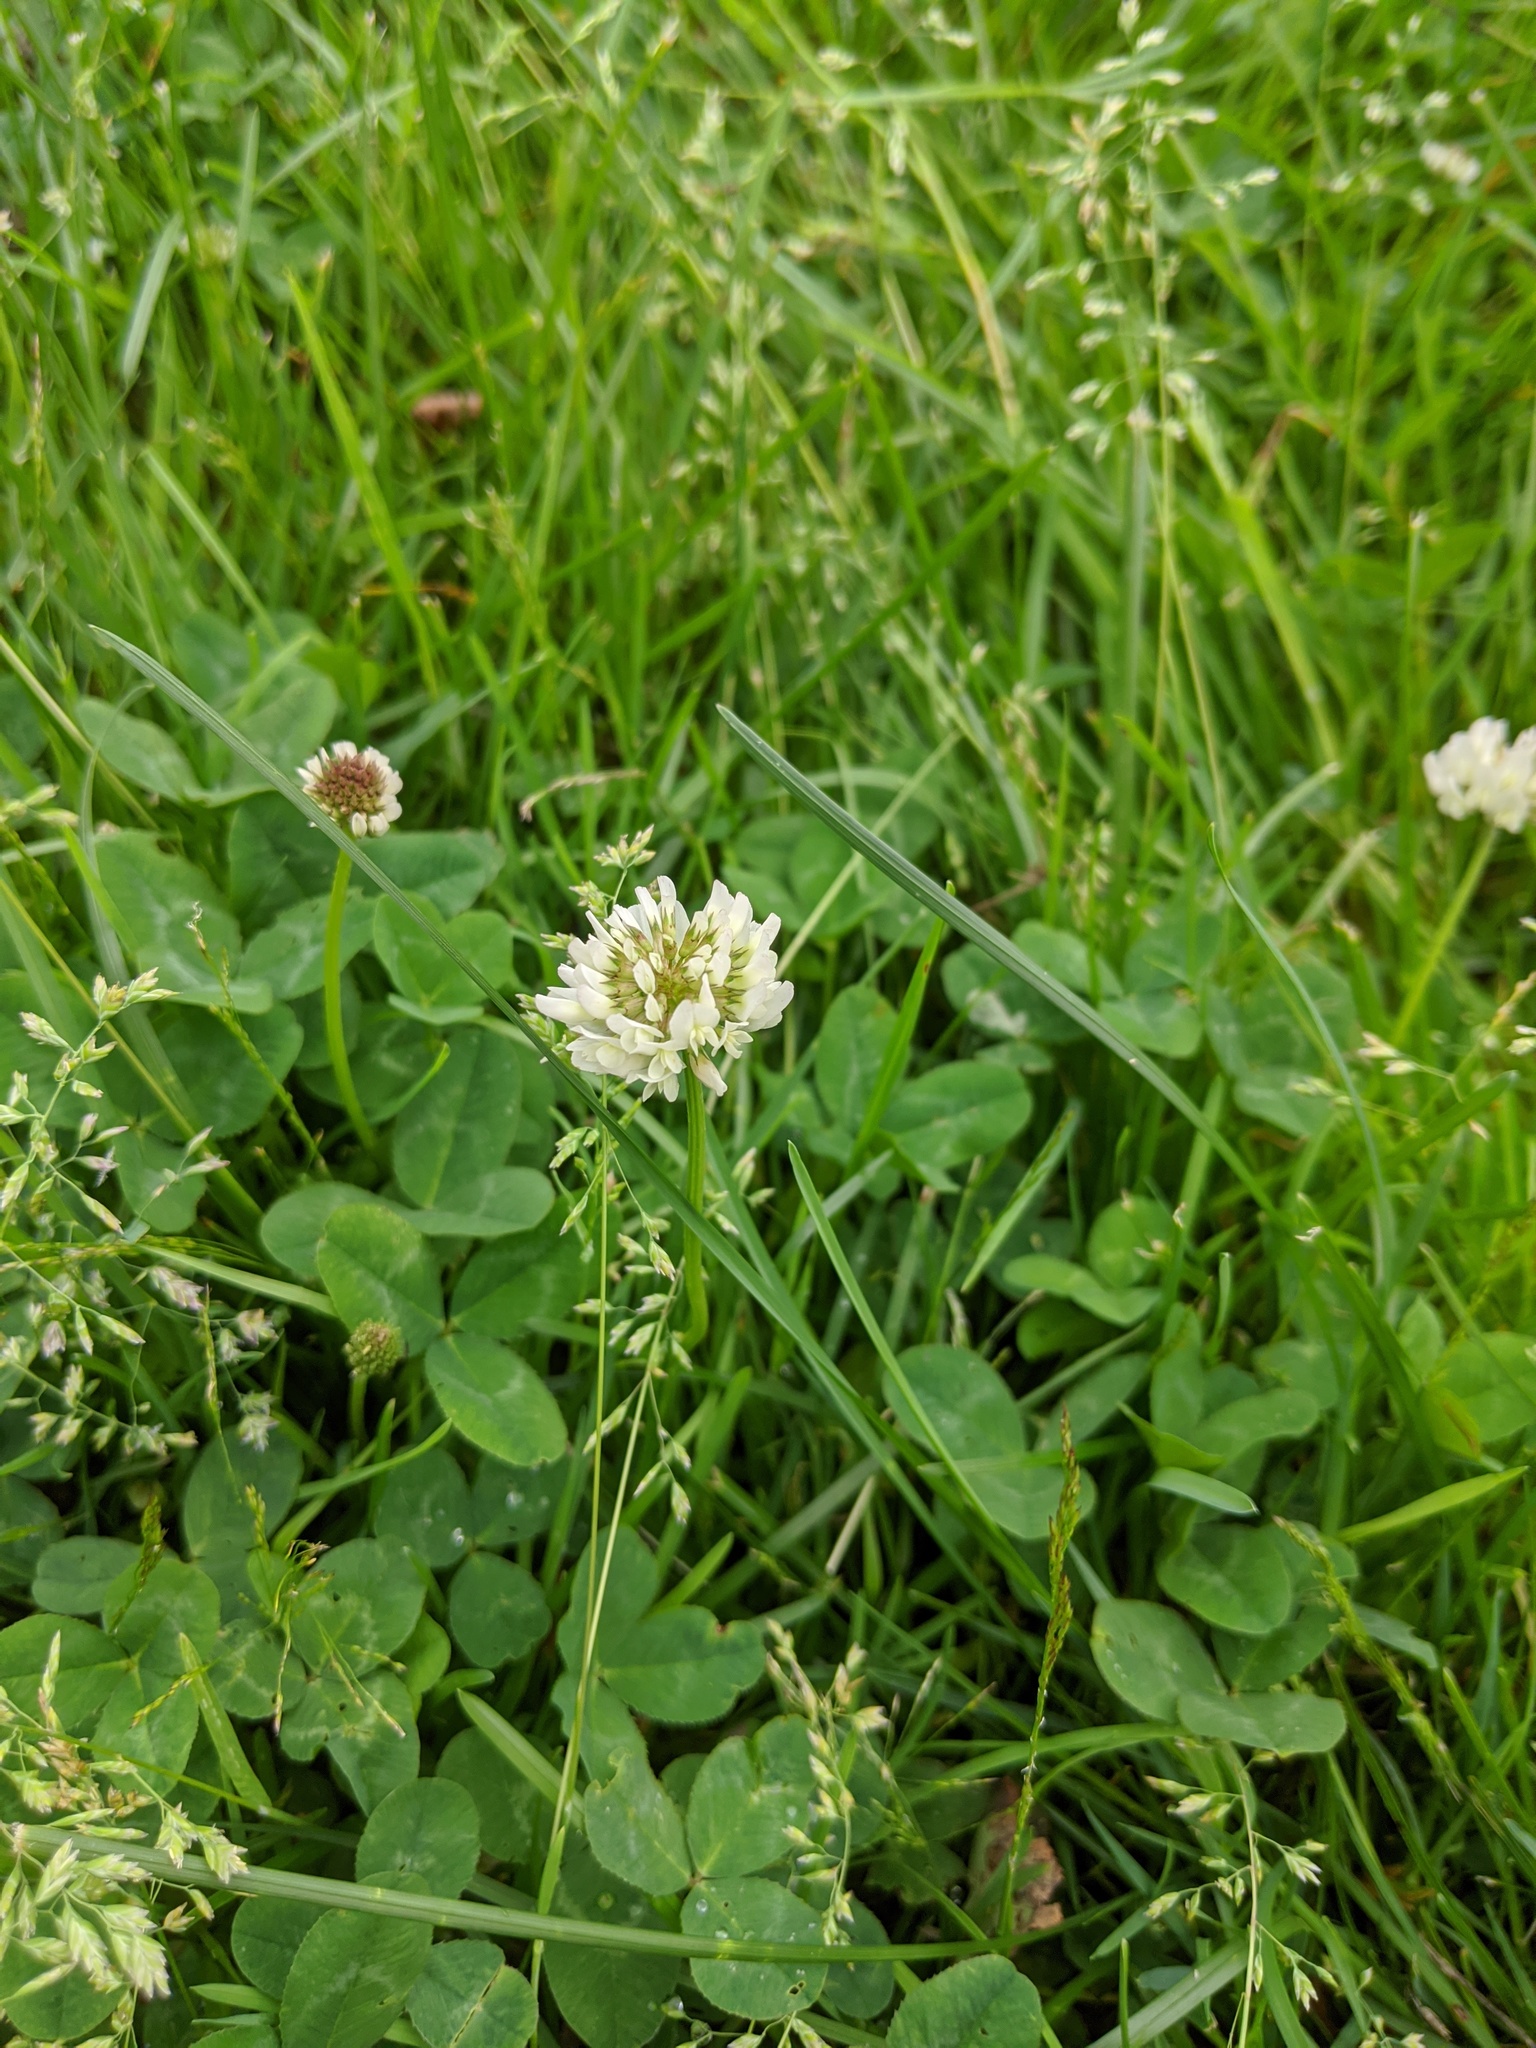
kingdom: Plantae
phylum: Tracheophyta
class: Magnoliopsida
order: Fabales
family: Fabaceae
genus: Trifolium
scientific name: Trifolium repens
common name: White clover
